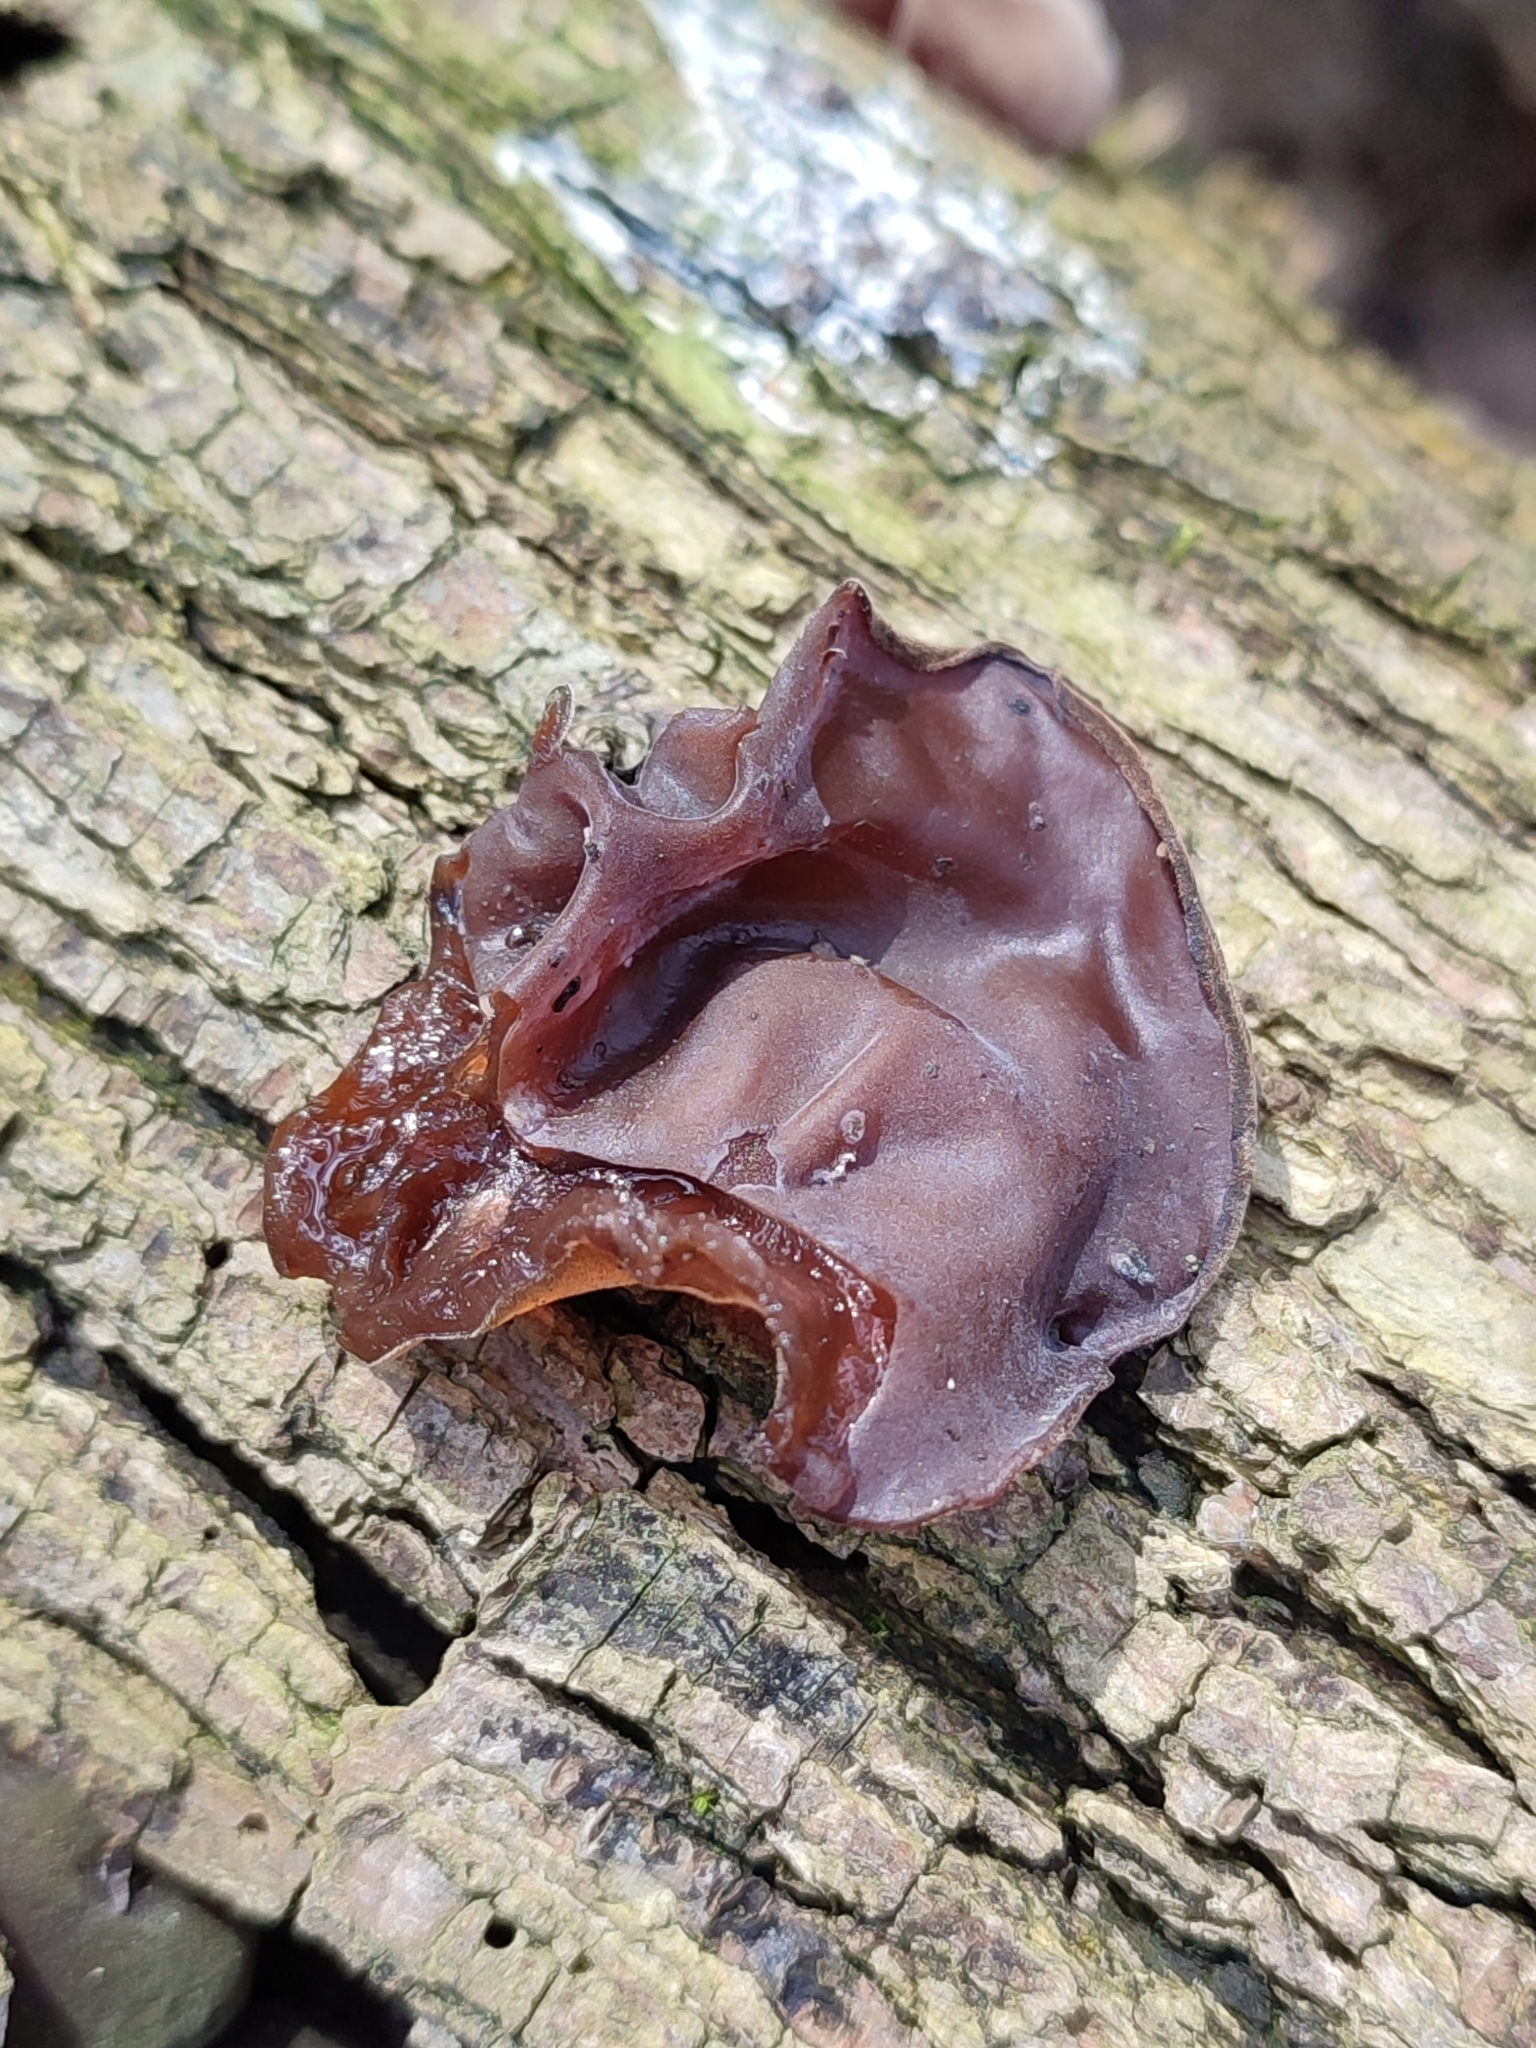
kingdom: Fungi
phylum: Basidiomycota
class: Agaricomycetes
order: Auriculariales
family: Auriculariaceae
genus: Auricularia
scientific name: Auricularia auricula-judae
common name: Jelly ear
